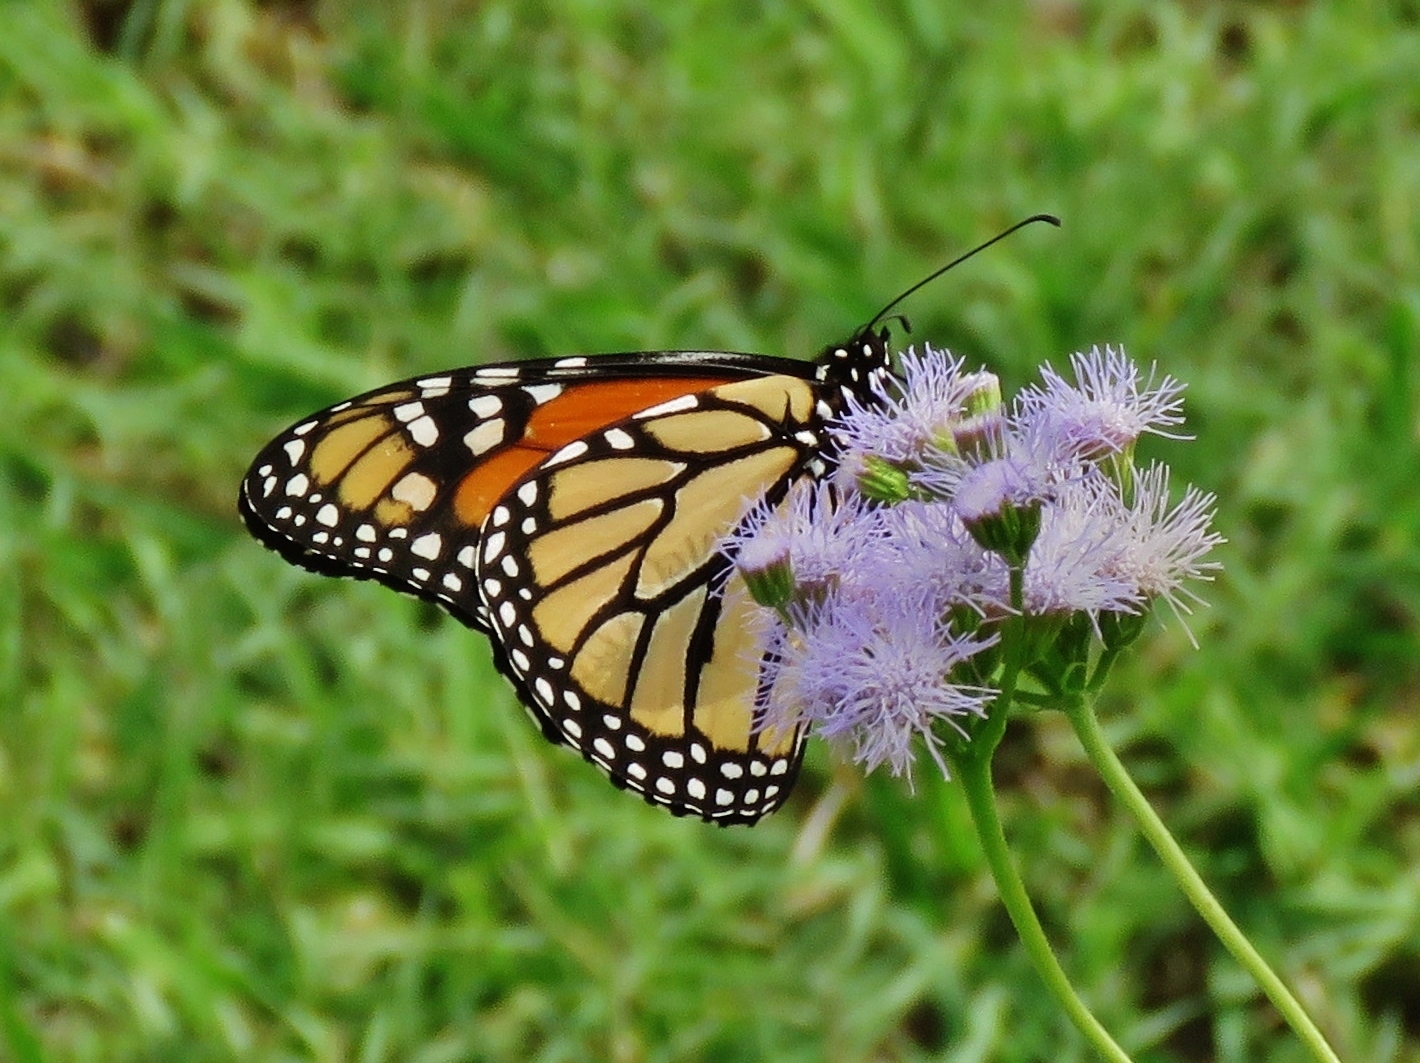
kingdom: Animalia
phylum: Arthropoda
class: Insecta
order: Lepidoptera
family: Nymphalidae
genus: Danaus
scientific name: Danaus plexippus
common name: Monarch
